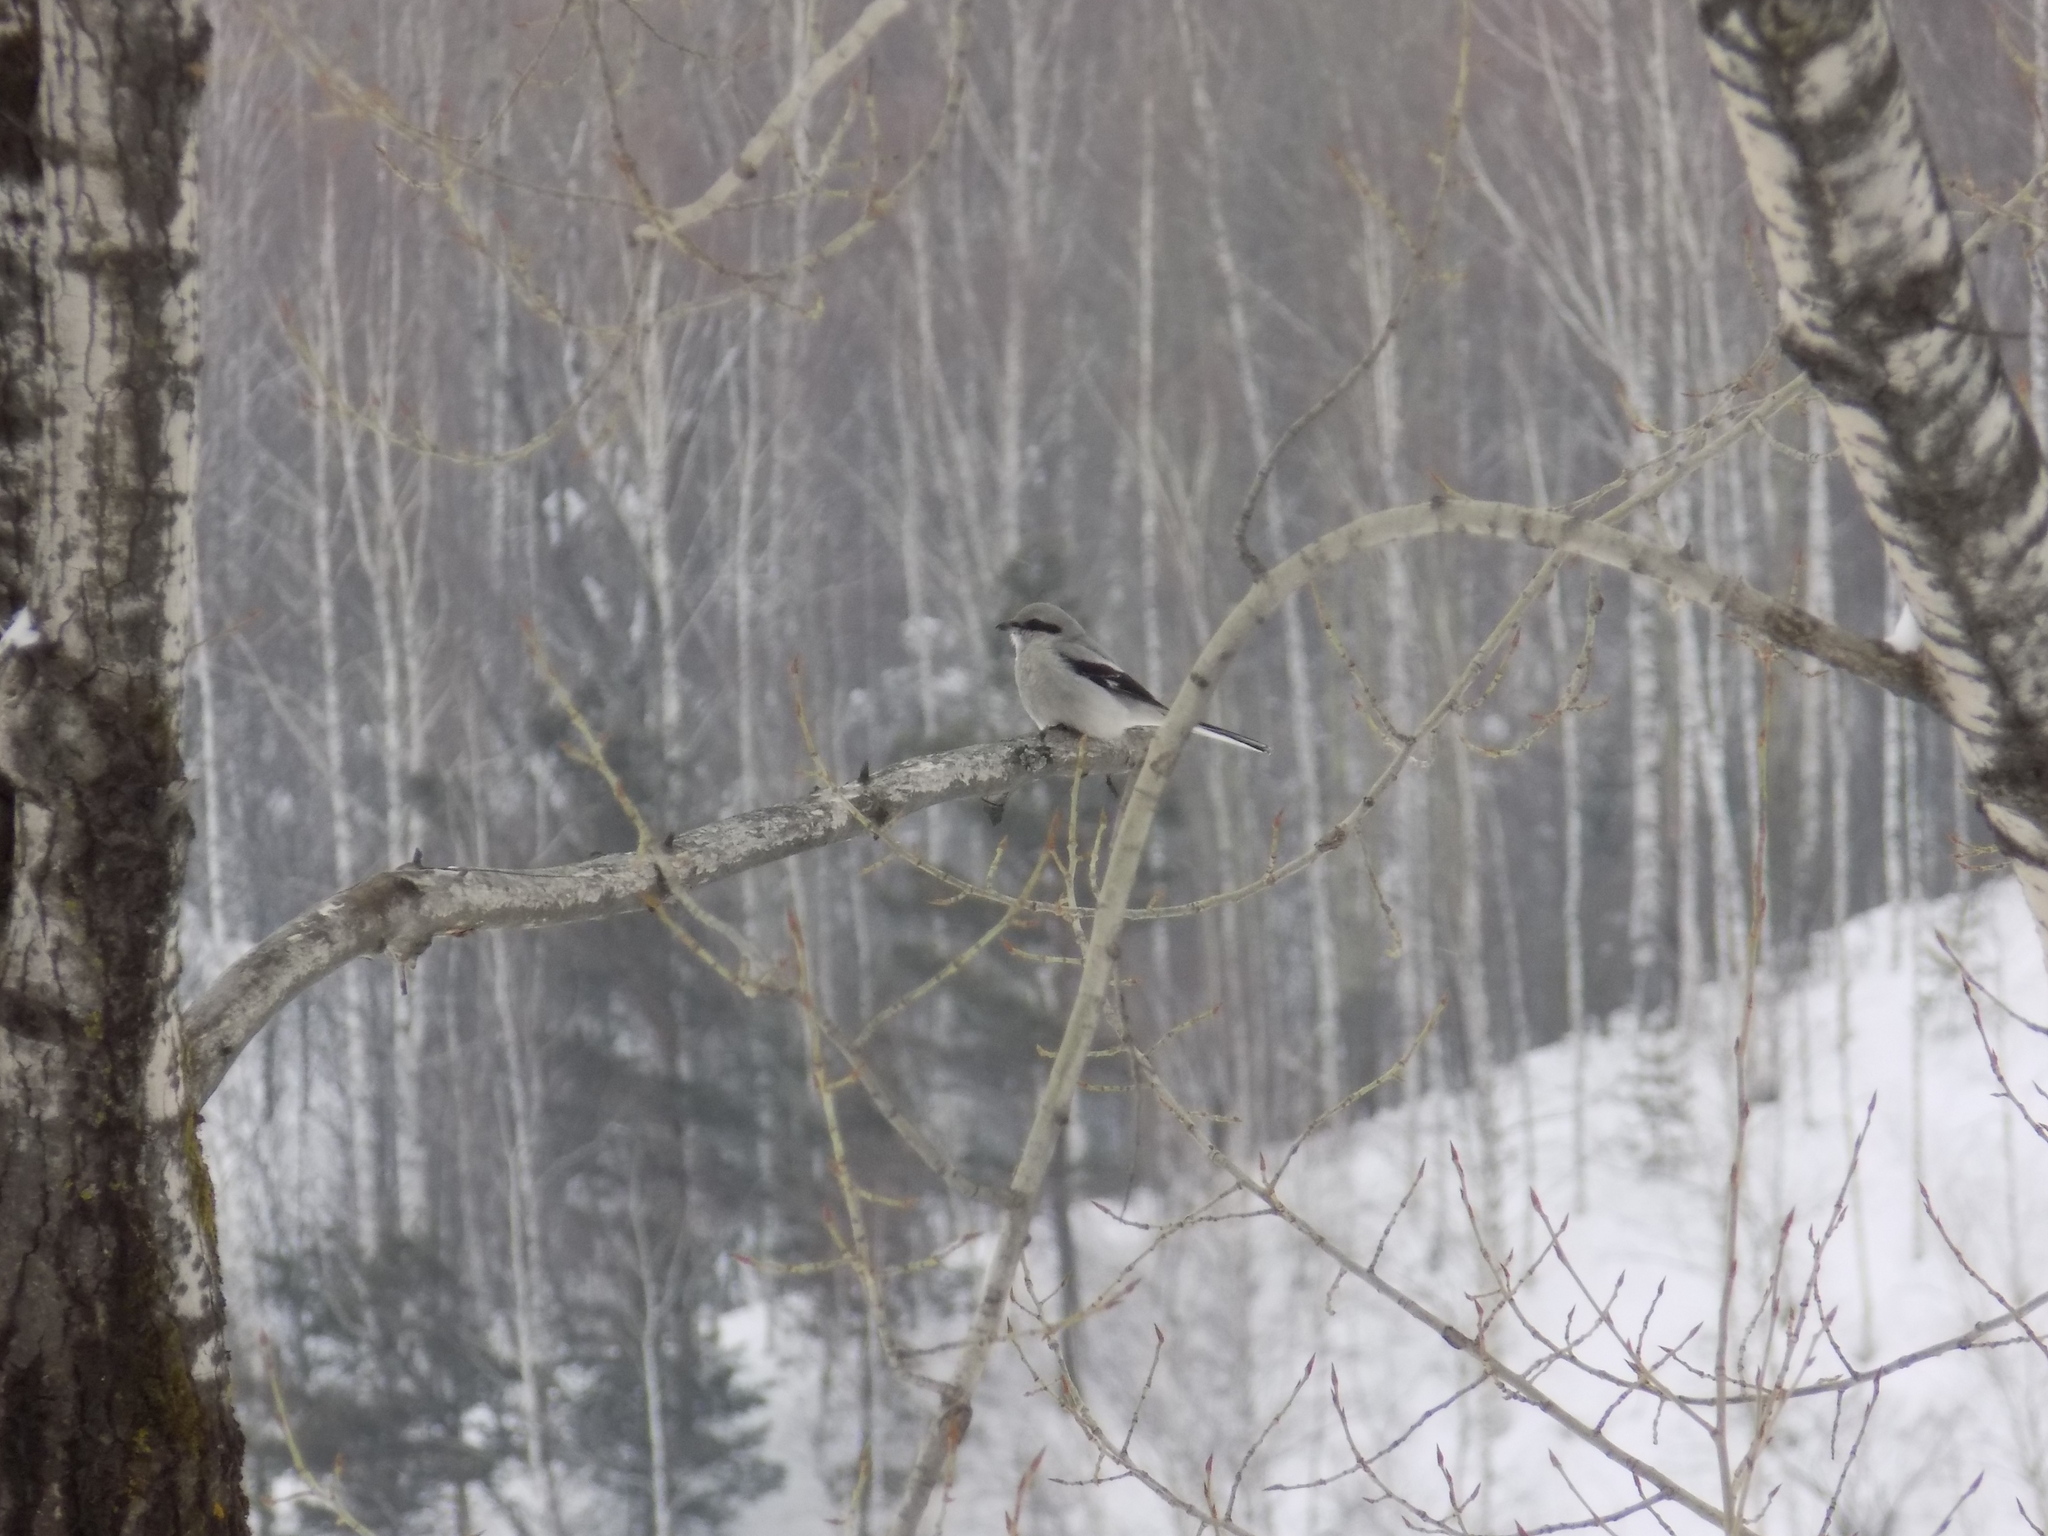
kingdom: Animalia
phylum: Chordata
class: Aves
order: Passeriformes
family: Laniidae
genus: Lanius
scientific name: Lanius borealis
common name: Northern shrike
